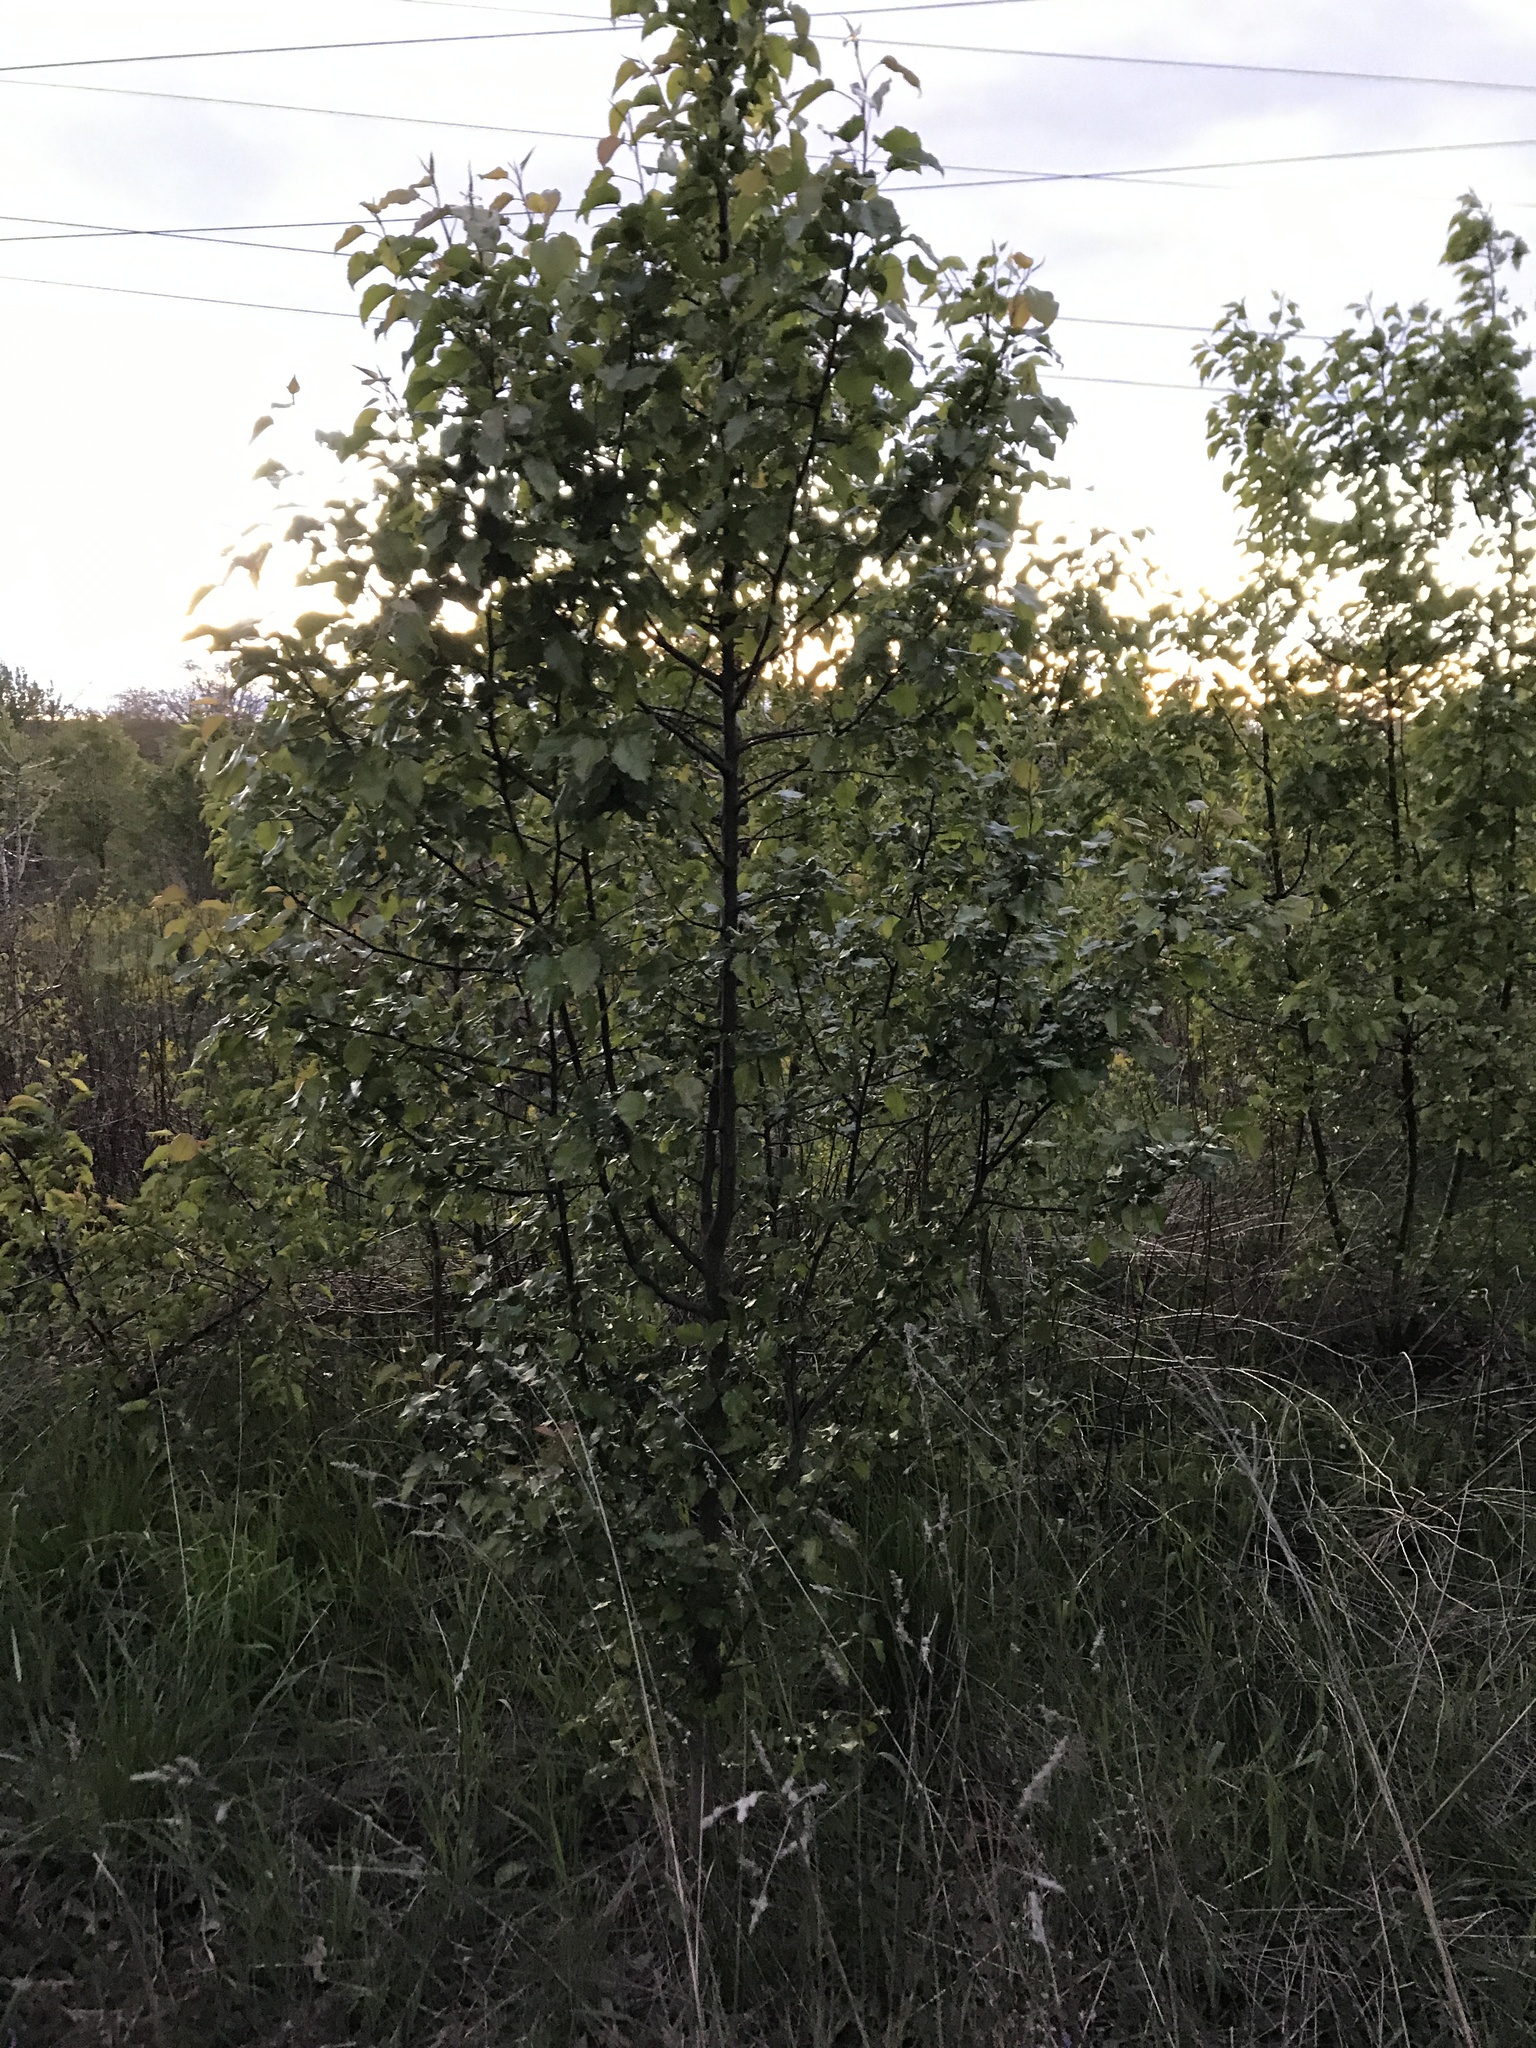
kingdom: Plantae
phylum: Tracheophyta
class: Magnoliopsida
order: Rosales
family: Rosaceae
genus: Pyrus
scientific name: Pyrus calleryana
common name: Callery pear
